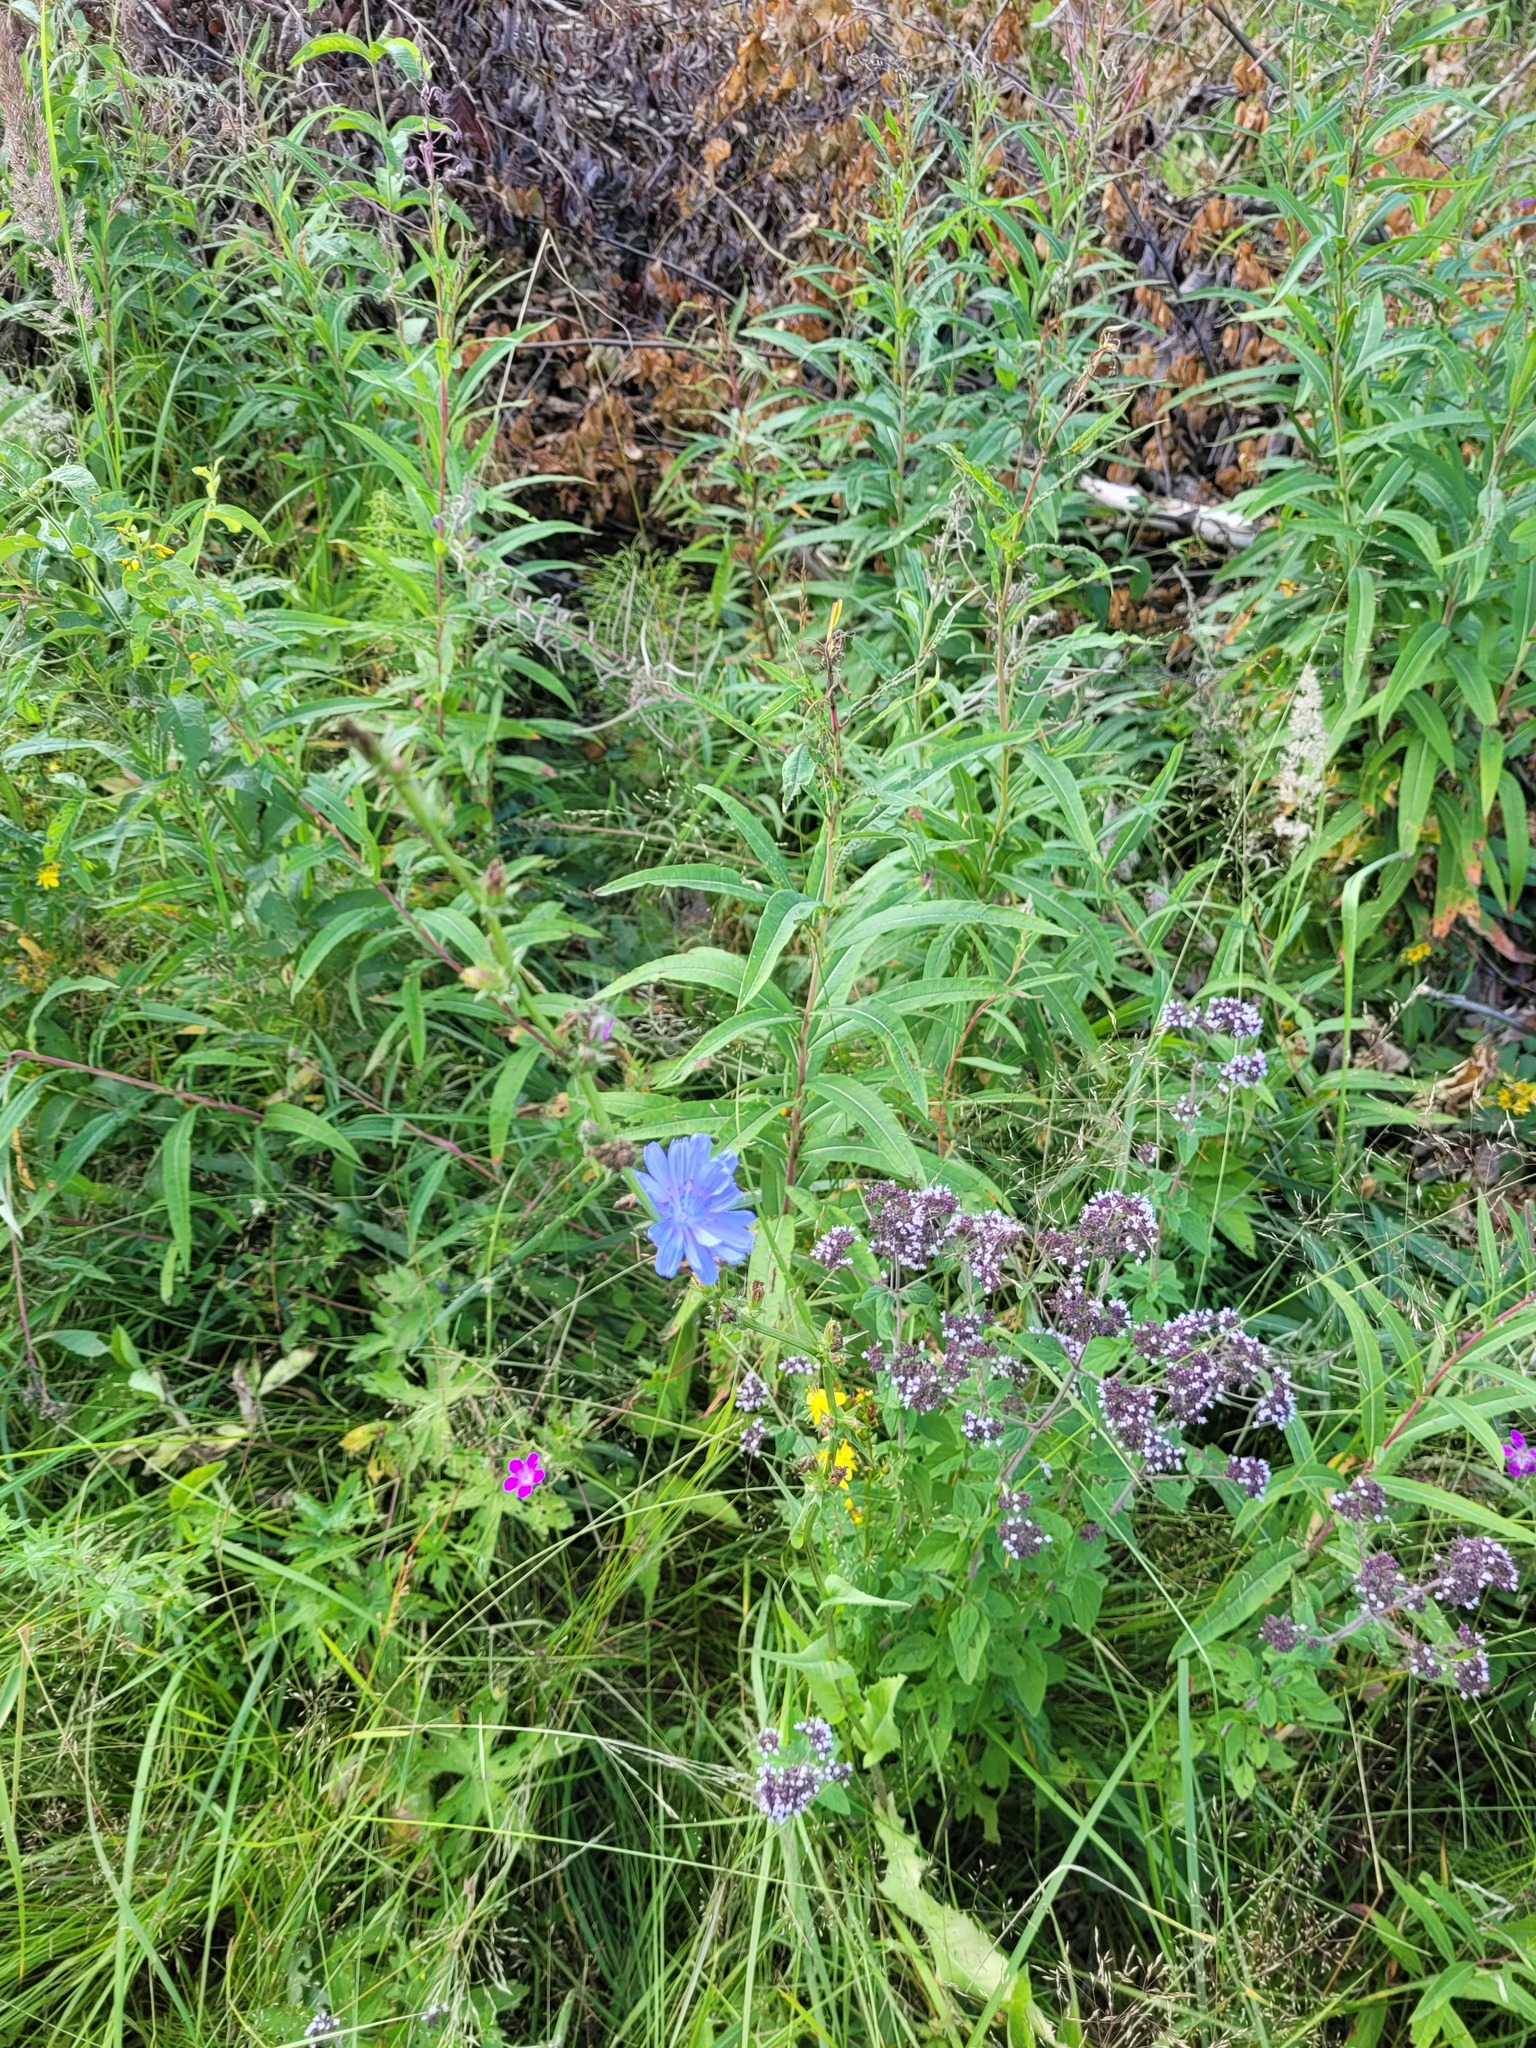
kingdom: Plantae
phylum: Tracheophyta
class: Magnoliopsida
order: Myrtales
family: Onagraceae
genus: Chamaenerion
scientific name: Chamaenerion angustifolium
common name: Fireweed
